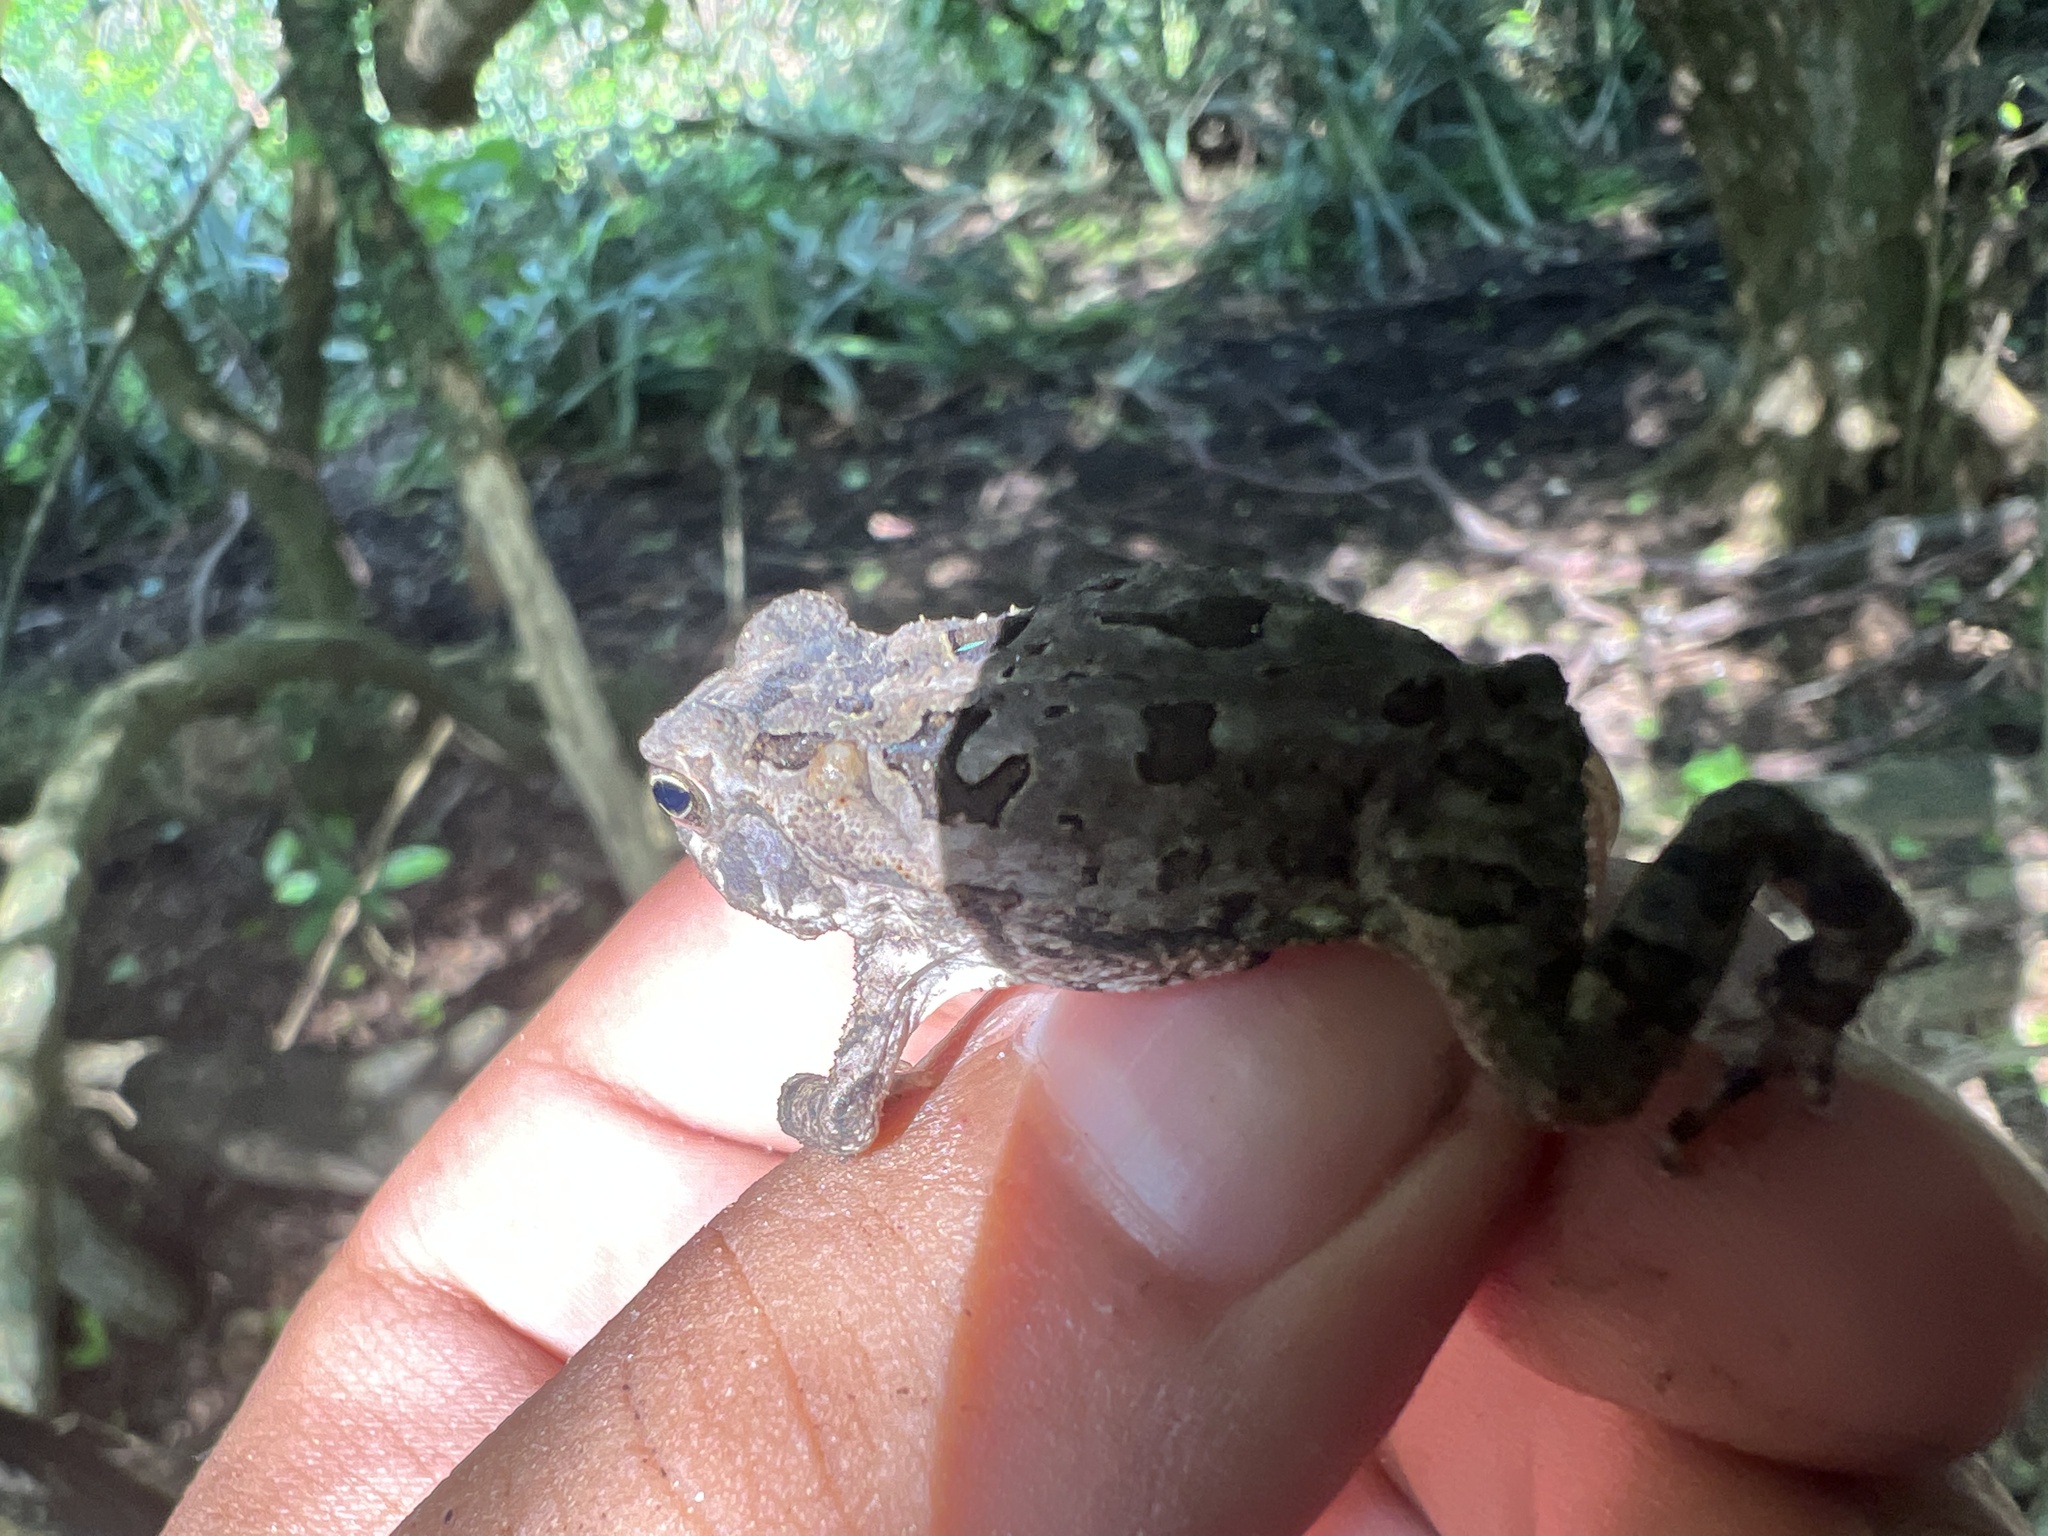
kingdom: Animalia
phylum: Chordata
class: Amphibia
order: Anura
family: Bufonidae
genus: Rhinella
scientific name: Rhinella diptycha
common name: Cope's toad
